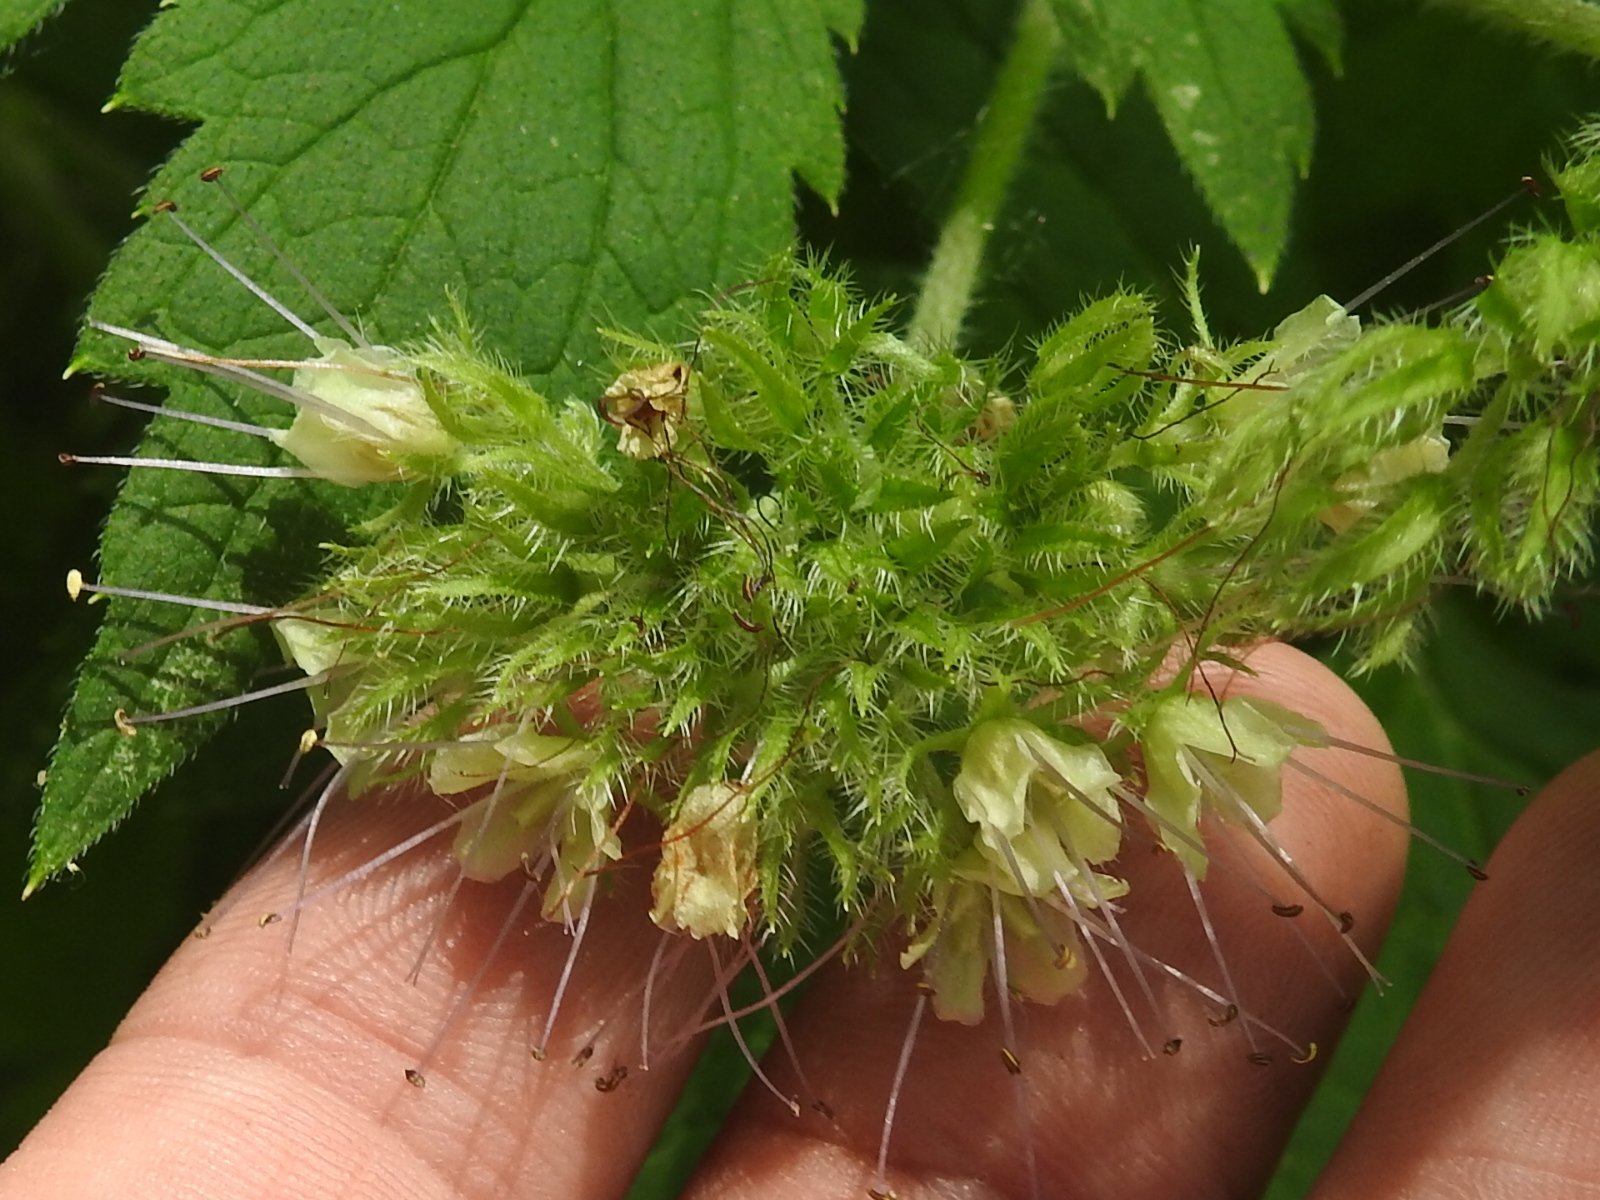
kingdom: Plantae
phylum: Tracheophyta
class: Magnoliopsida
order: Boraginales
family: Hydrophyllaceae
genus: Hydrophyllum
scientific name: Hydrophyllum tenuipes
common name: Pacific waterleaf
